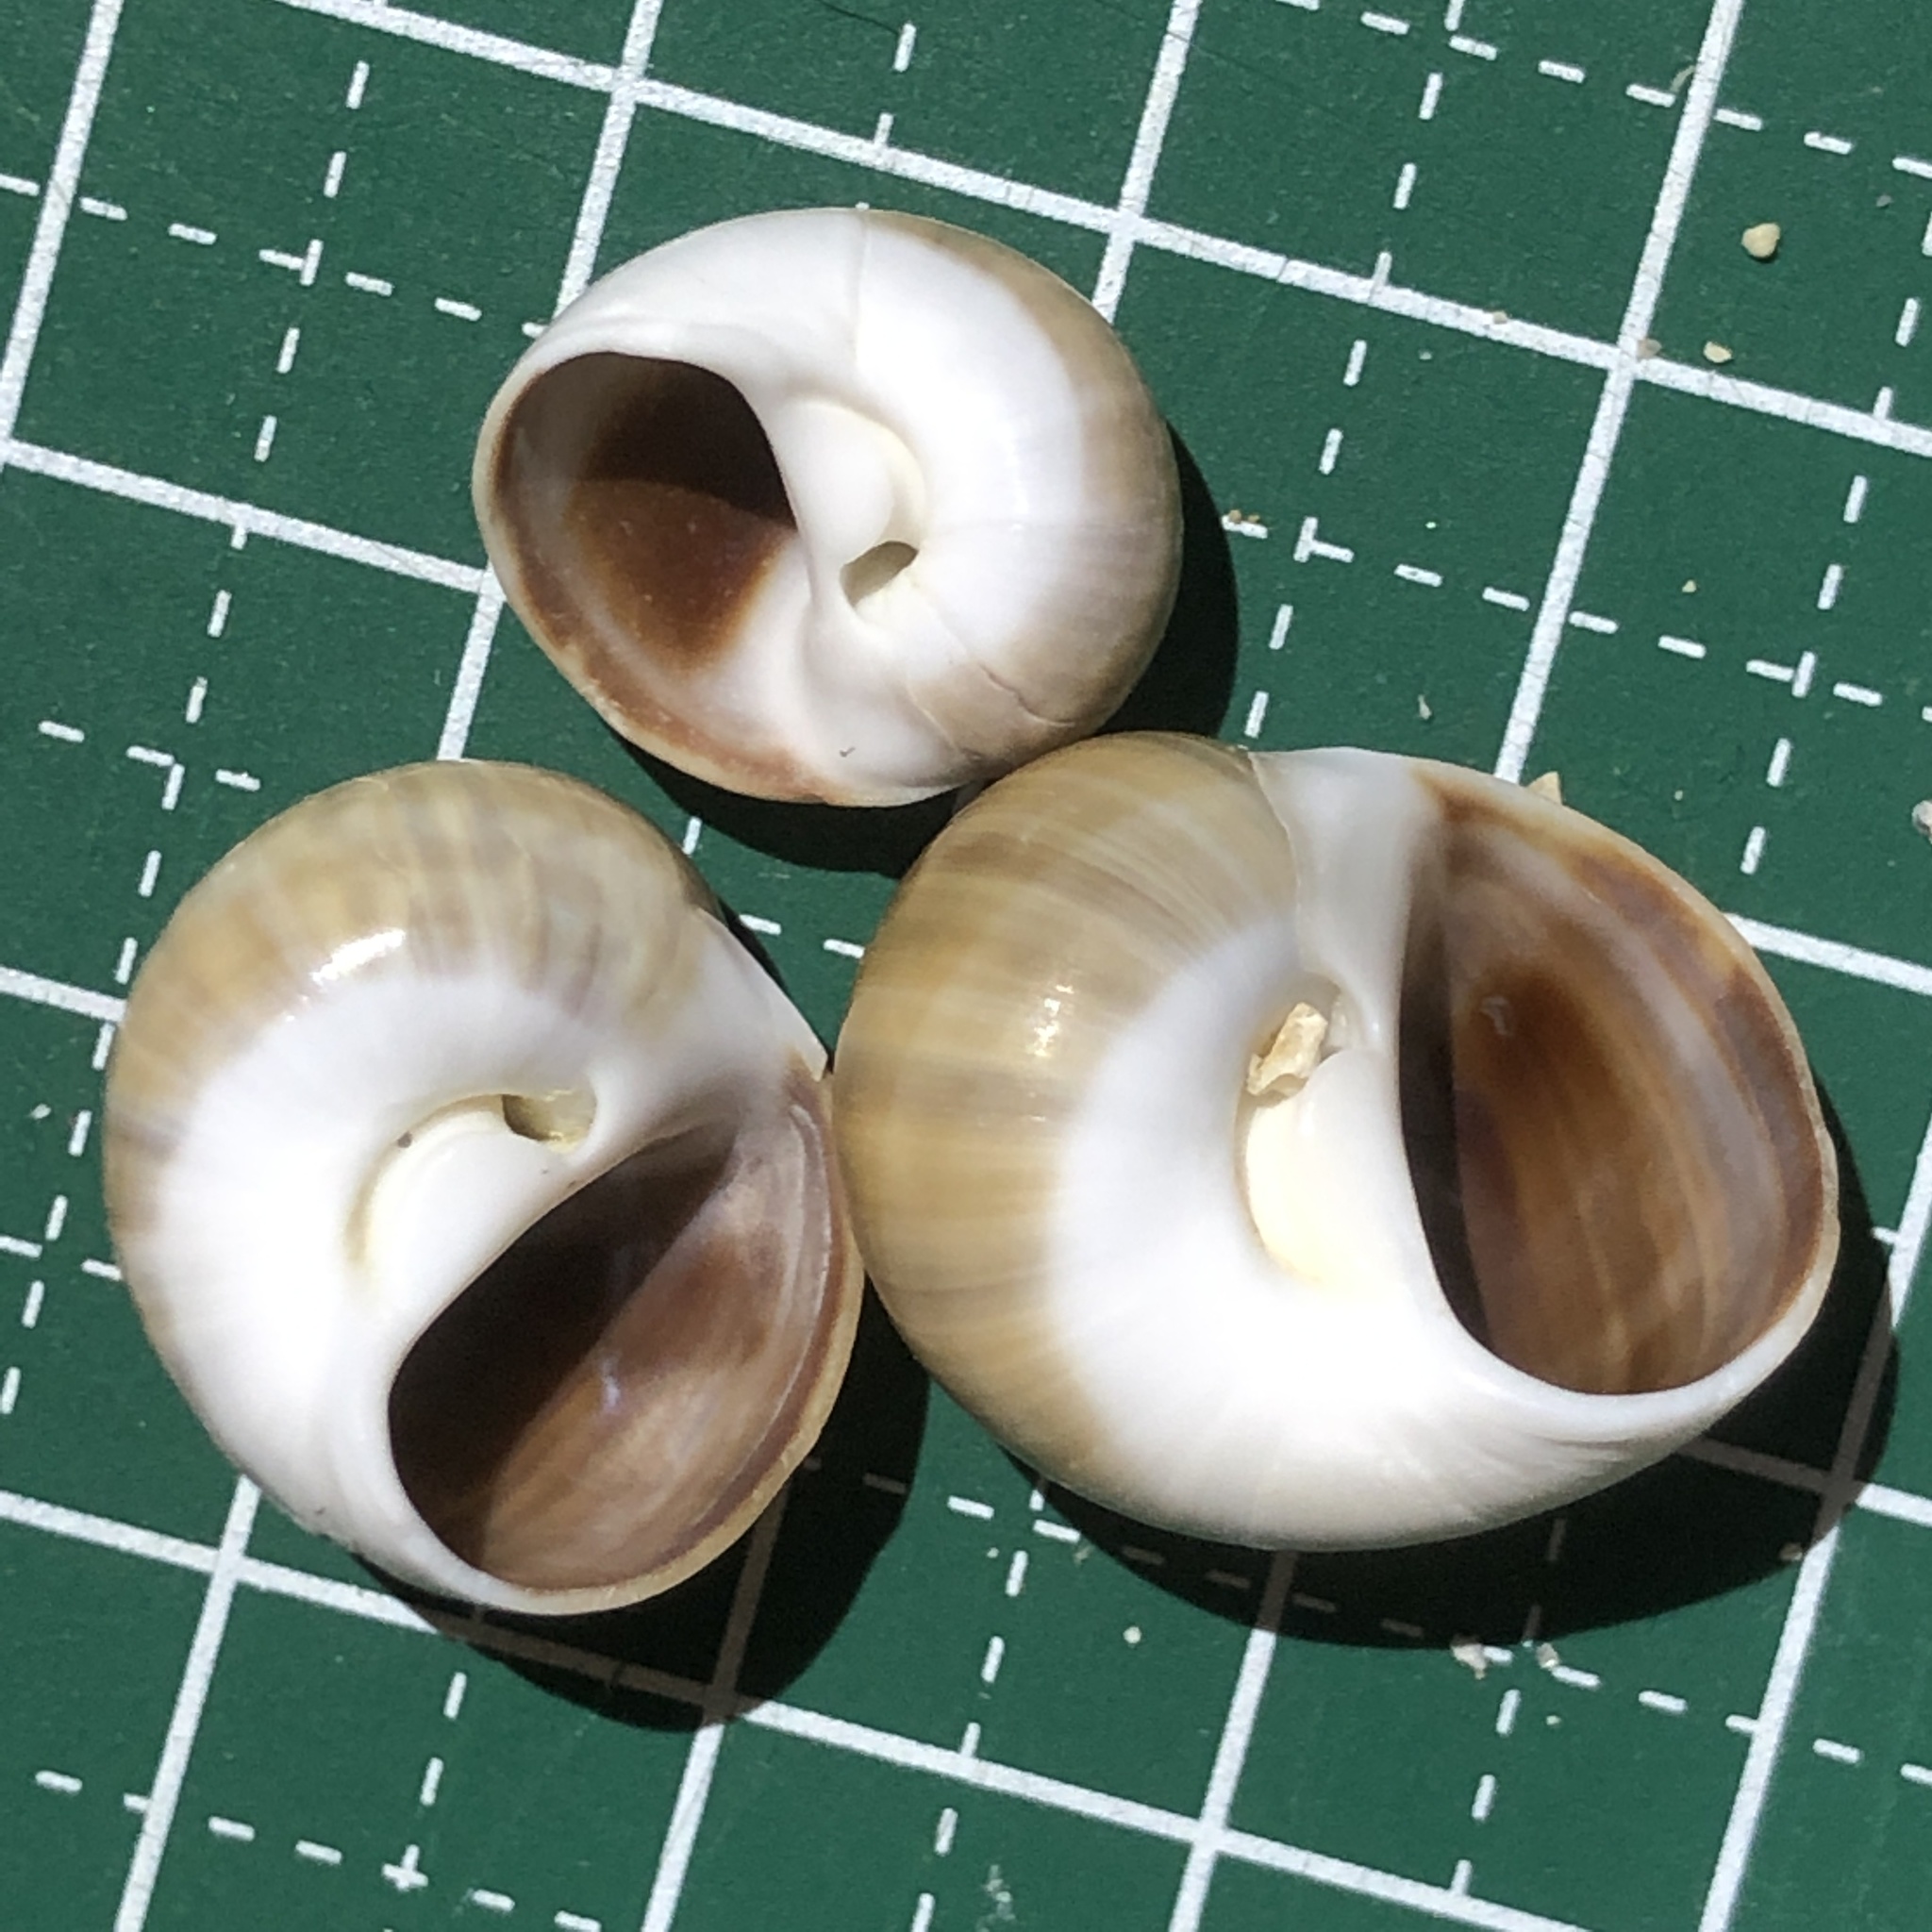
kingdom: Animalia
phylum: Mollusca
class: Gastropoda
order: Littorinimorpha
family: Naticidae
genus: Notocochlis
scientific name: Notocochlis gualteriana
